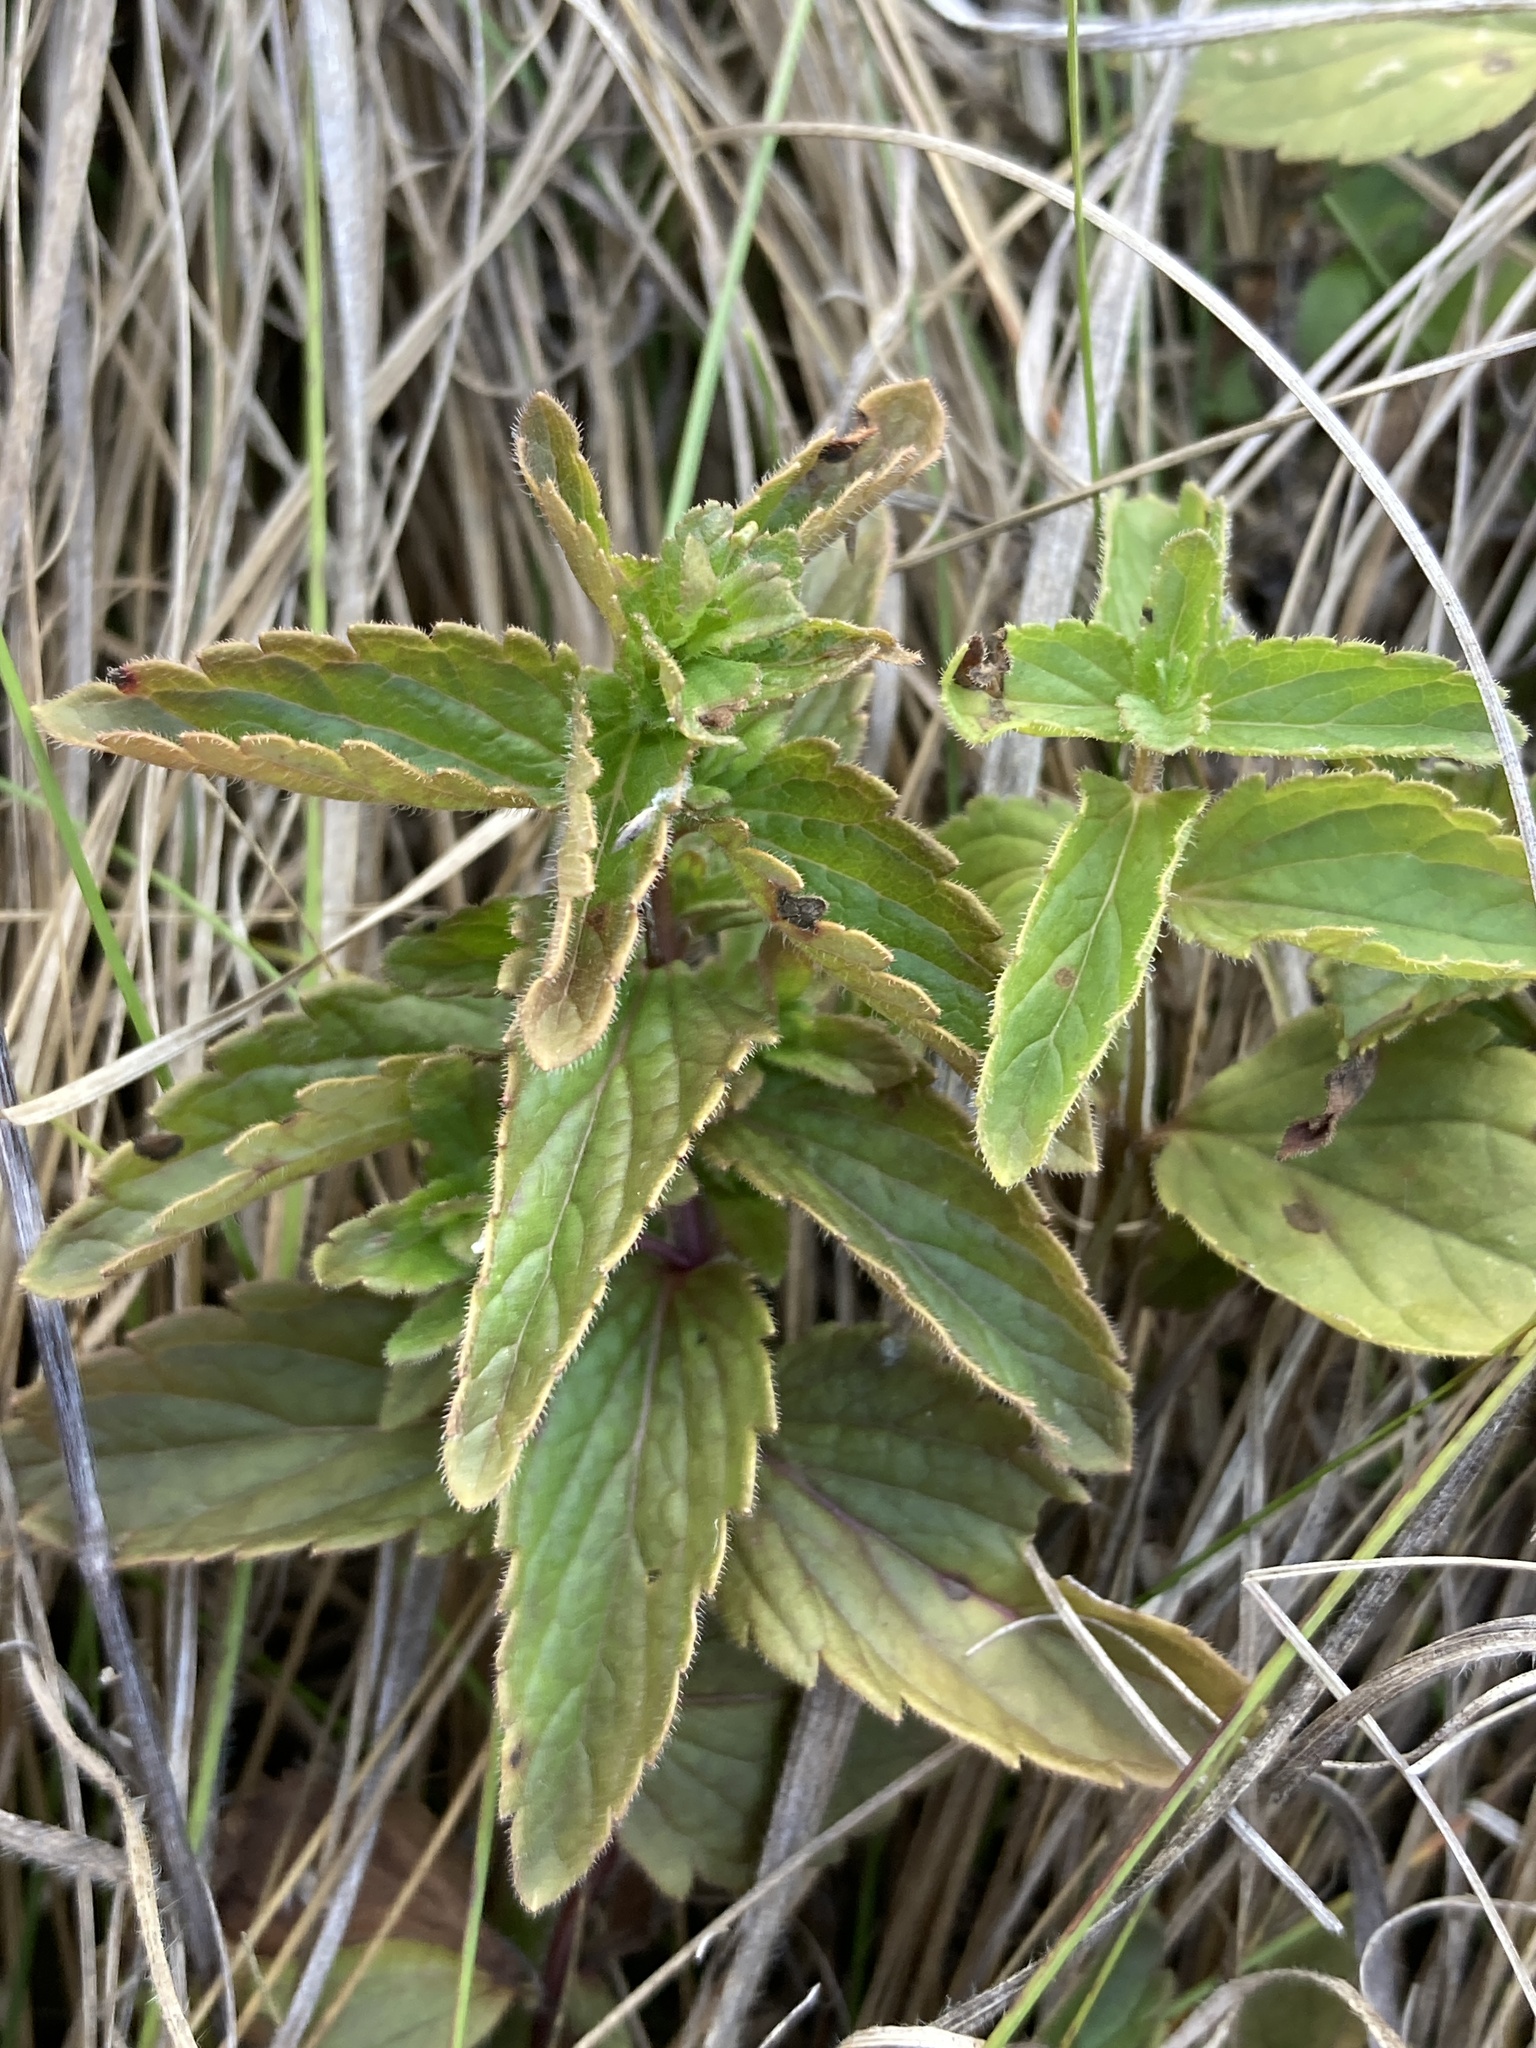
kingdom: Plantae
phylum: Tracheophyta
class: Magnoliopsida
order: Lamiales
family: Plantaginaceae
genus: Veronica
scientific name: Veronica teucrium
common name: Large speedwell
